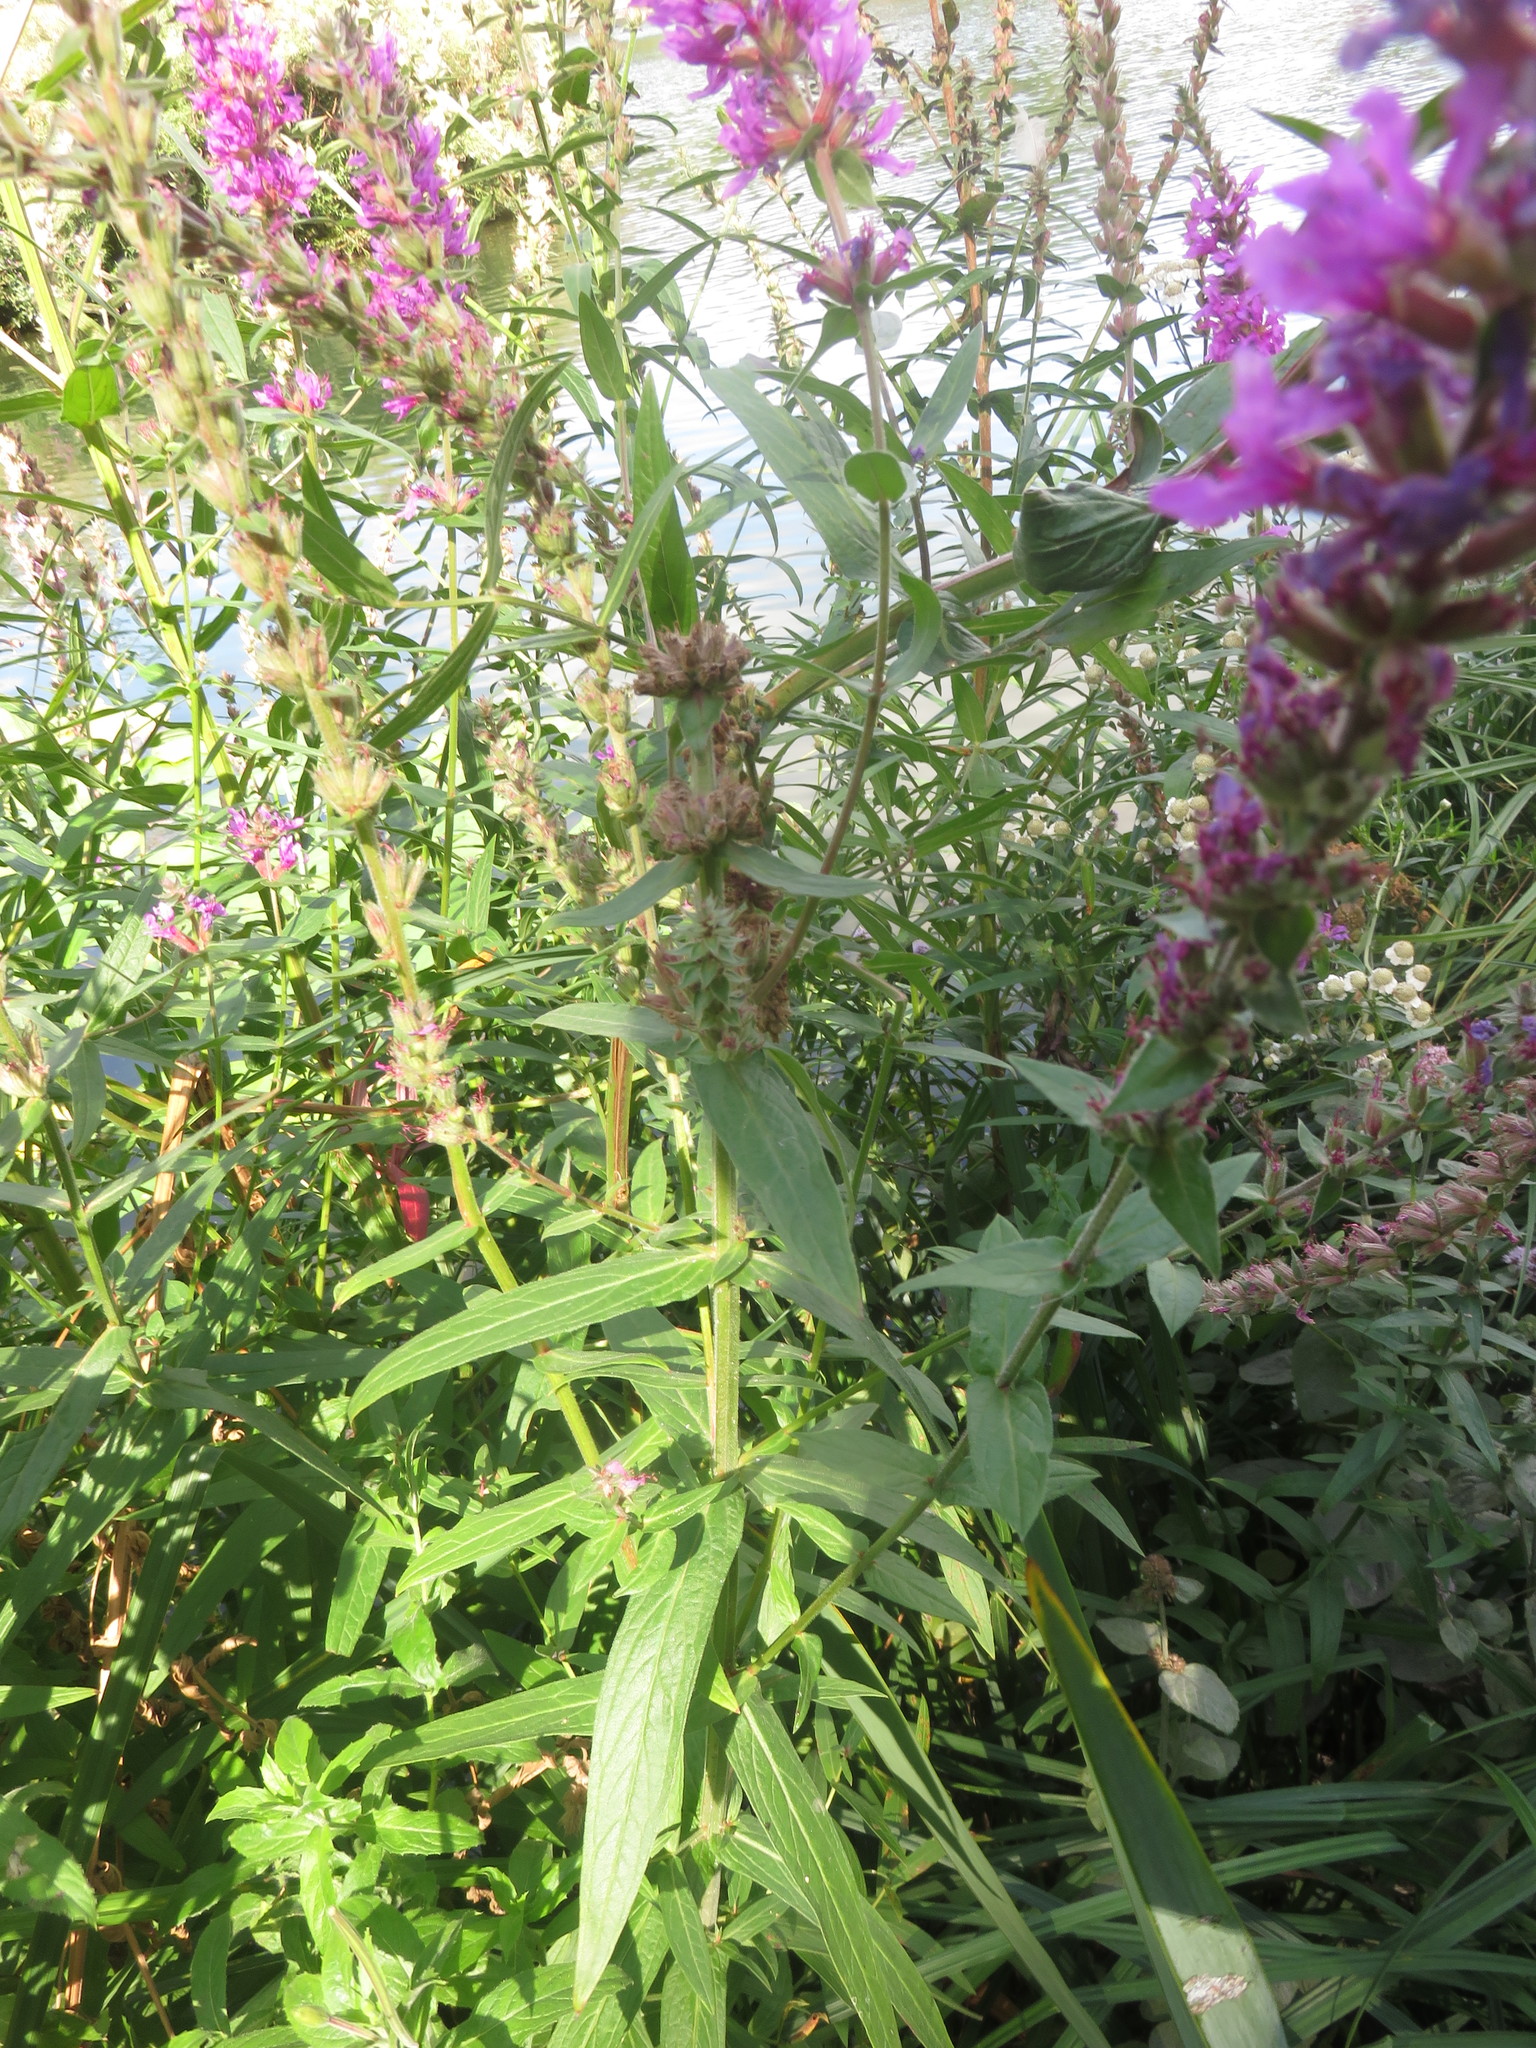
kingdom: Plantae
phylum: Tracheophyta
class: Magnoliopsida
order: Myrtales
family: Lythraceae
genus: Lythrum
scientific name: Lythrum salicaria
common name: Purple loosestrife
